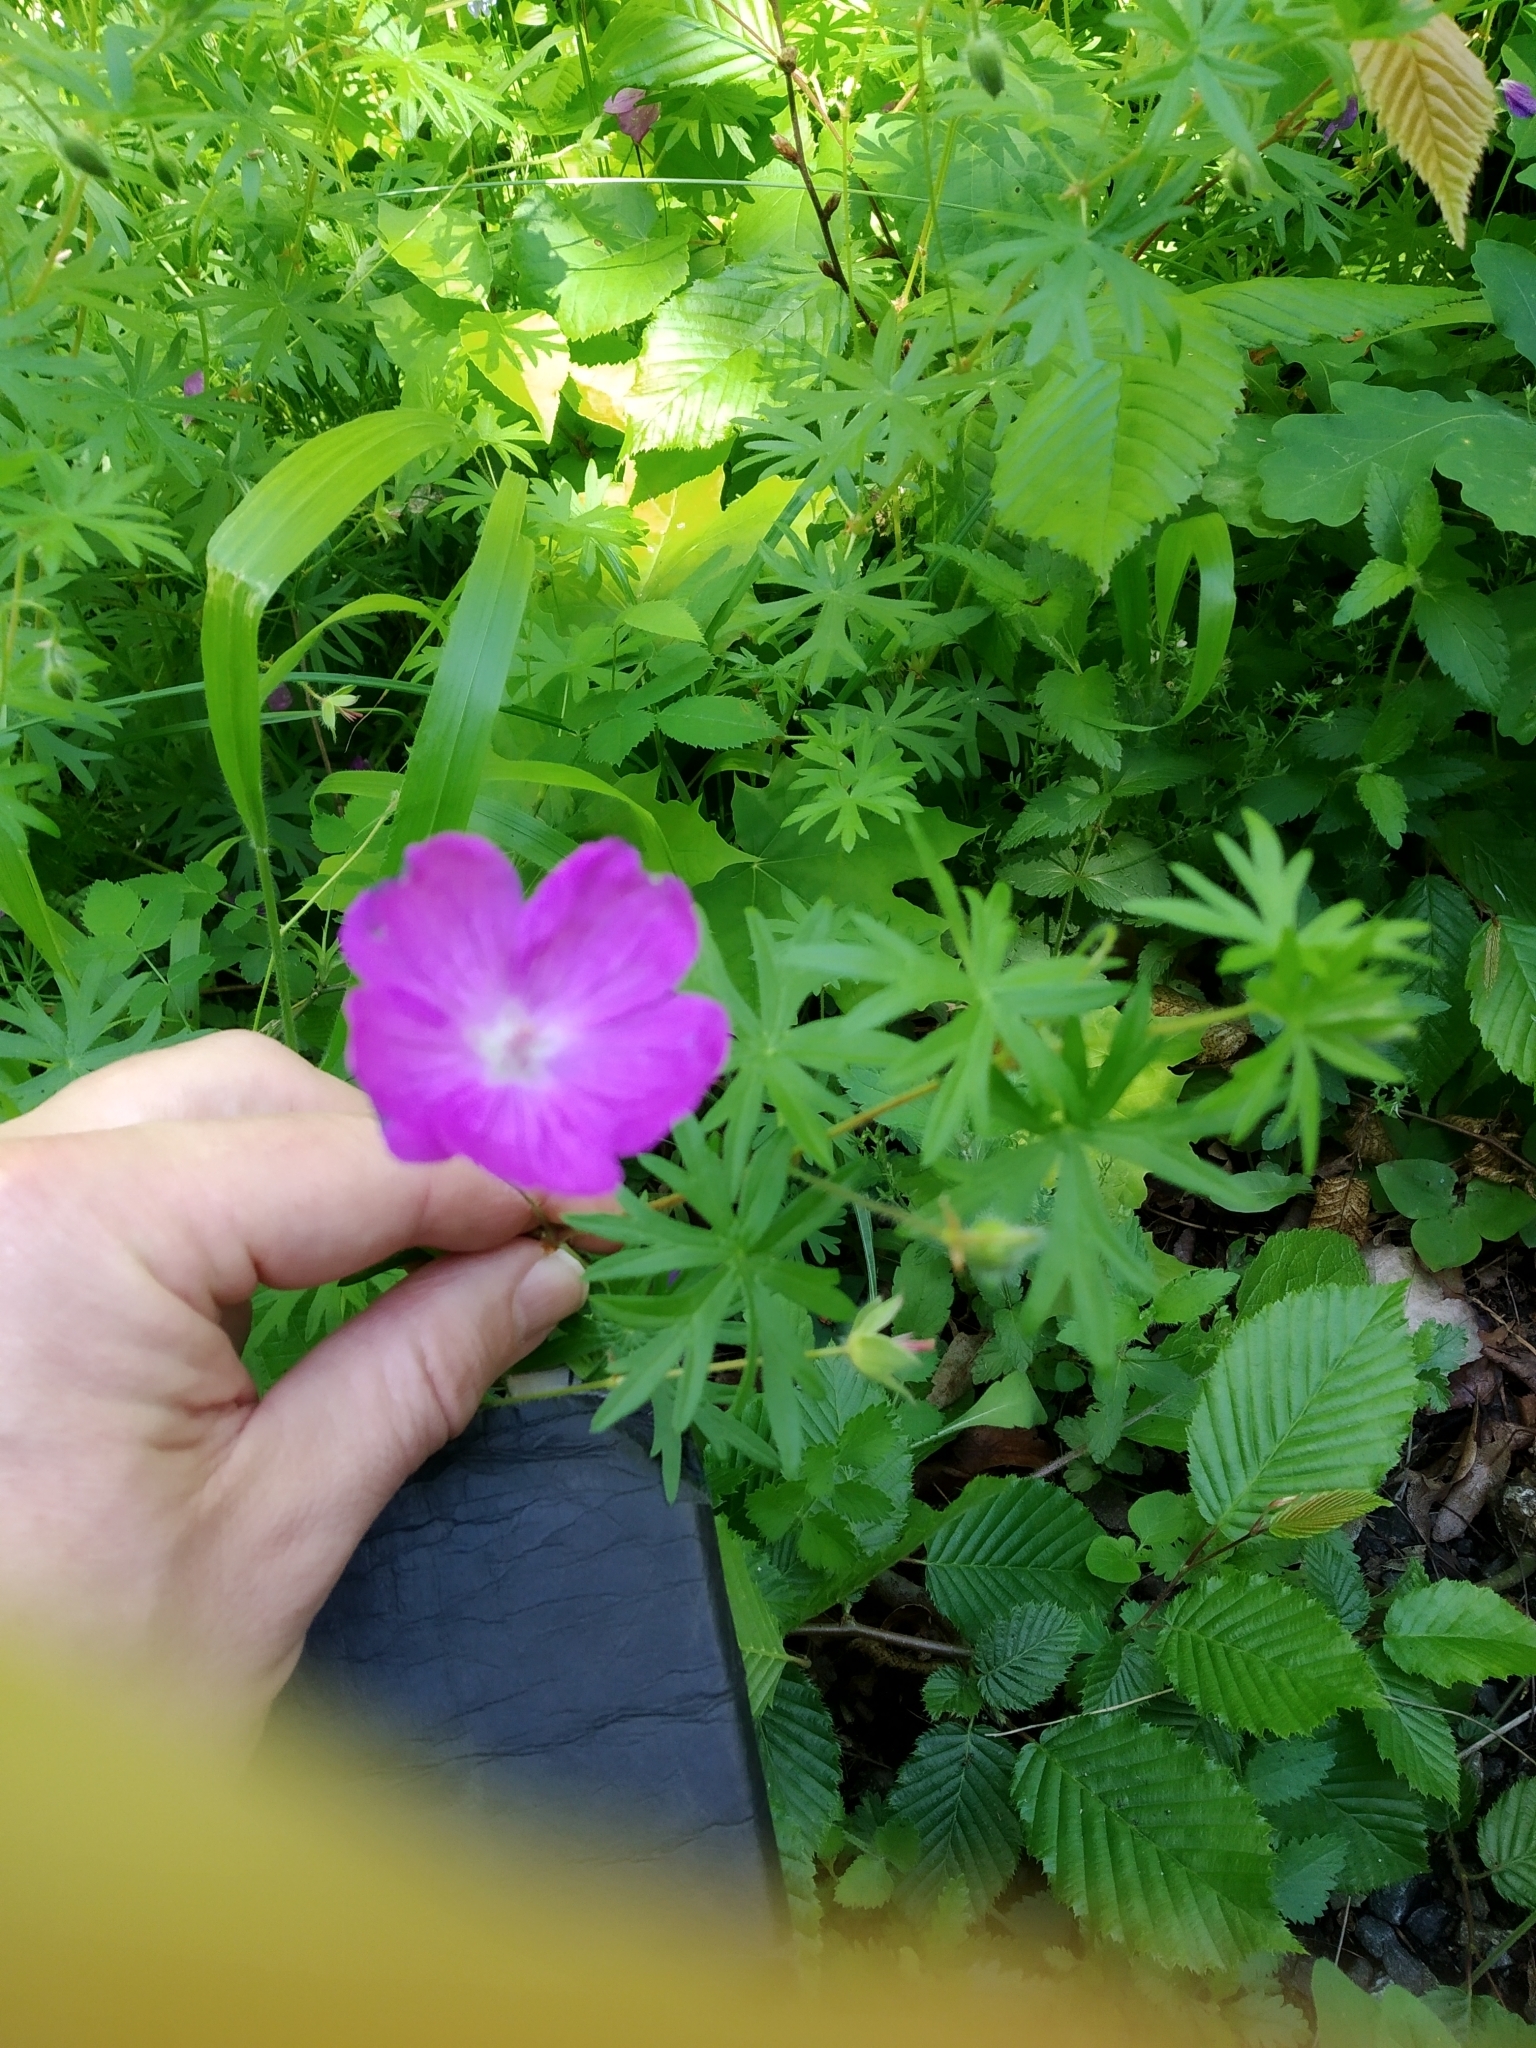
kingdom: Plantae
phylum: Tracheophyta
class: Magnoliopsida
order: Geraniales
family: Geraniaceae
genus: Geranium
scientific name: Geranium sanguineum
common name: Bloody crane's-bill
